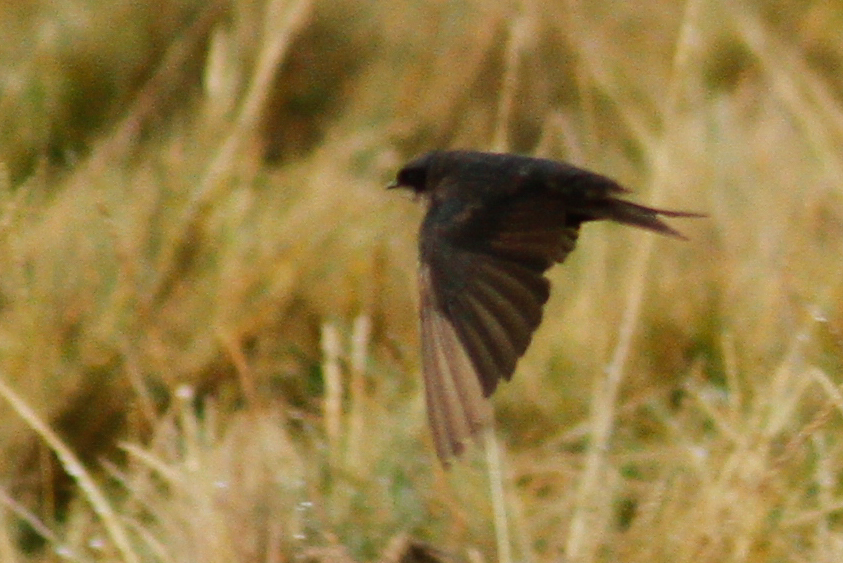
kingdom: Animalia
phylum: Chordata
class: Aves
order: Passeriformes
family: Hirundinidae
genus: Notiochelidon
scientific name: Notiochelidon murina
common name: Brown-bellied swallow
